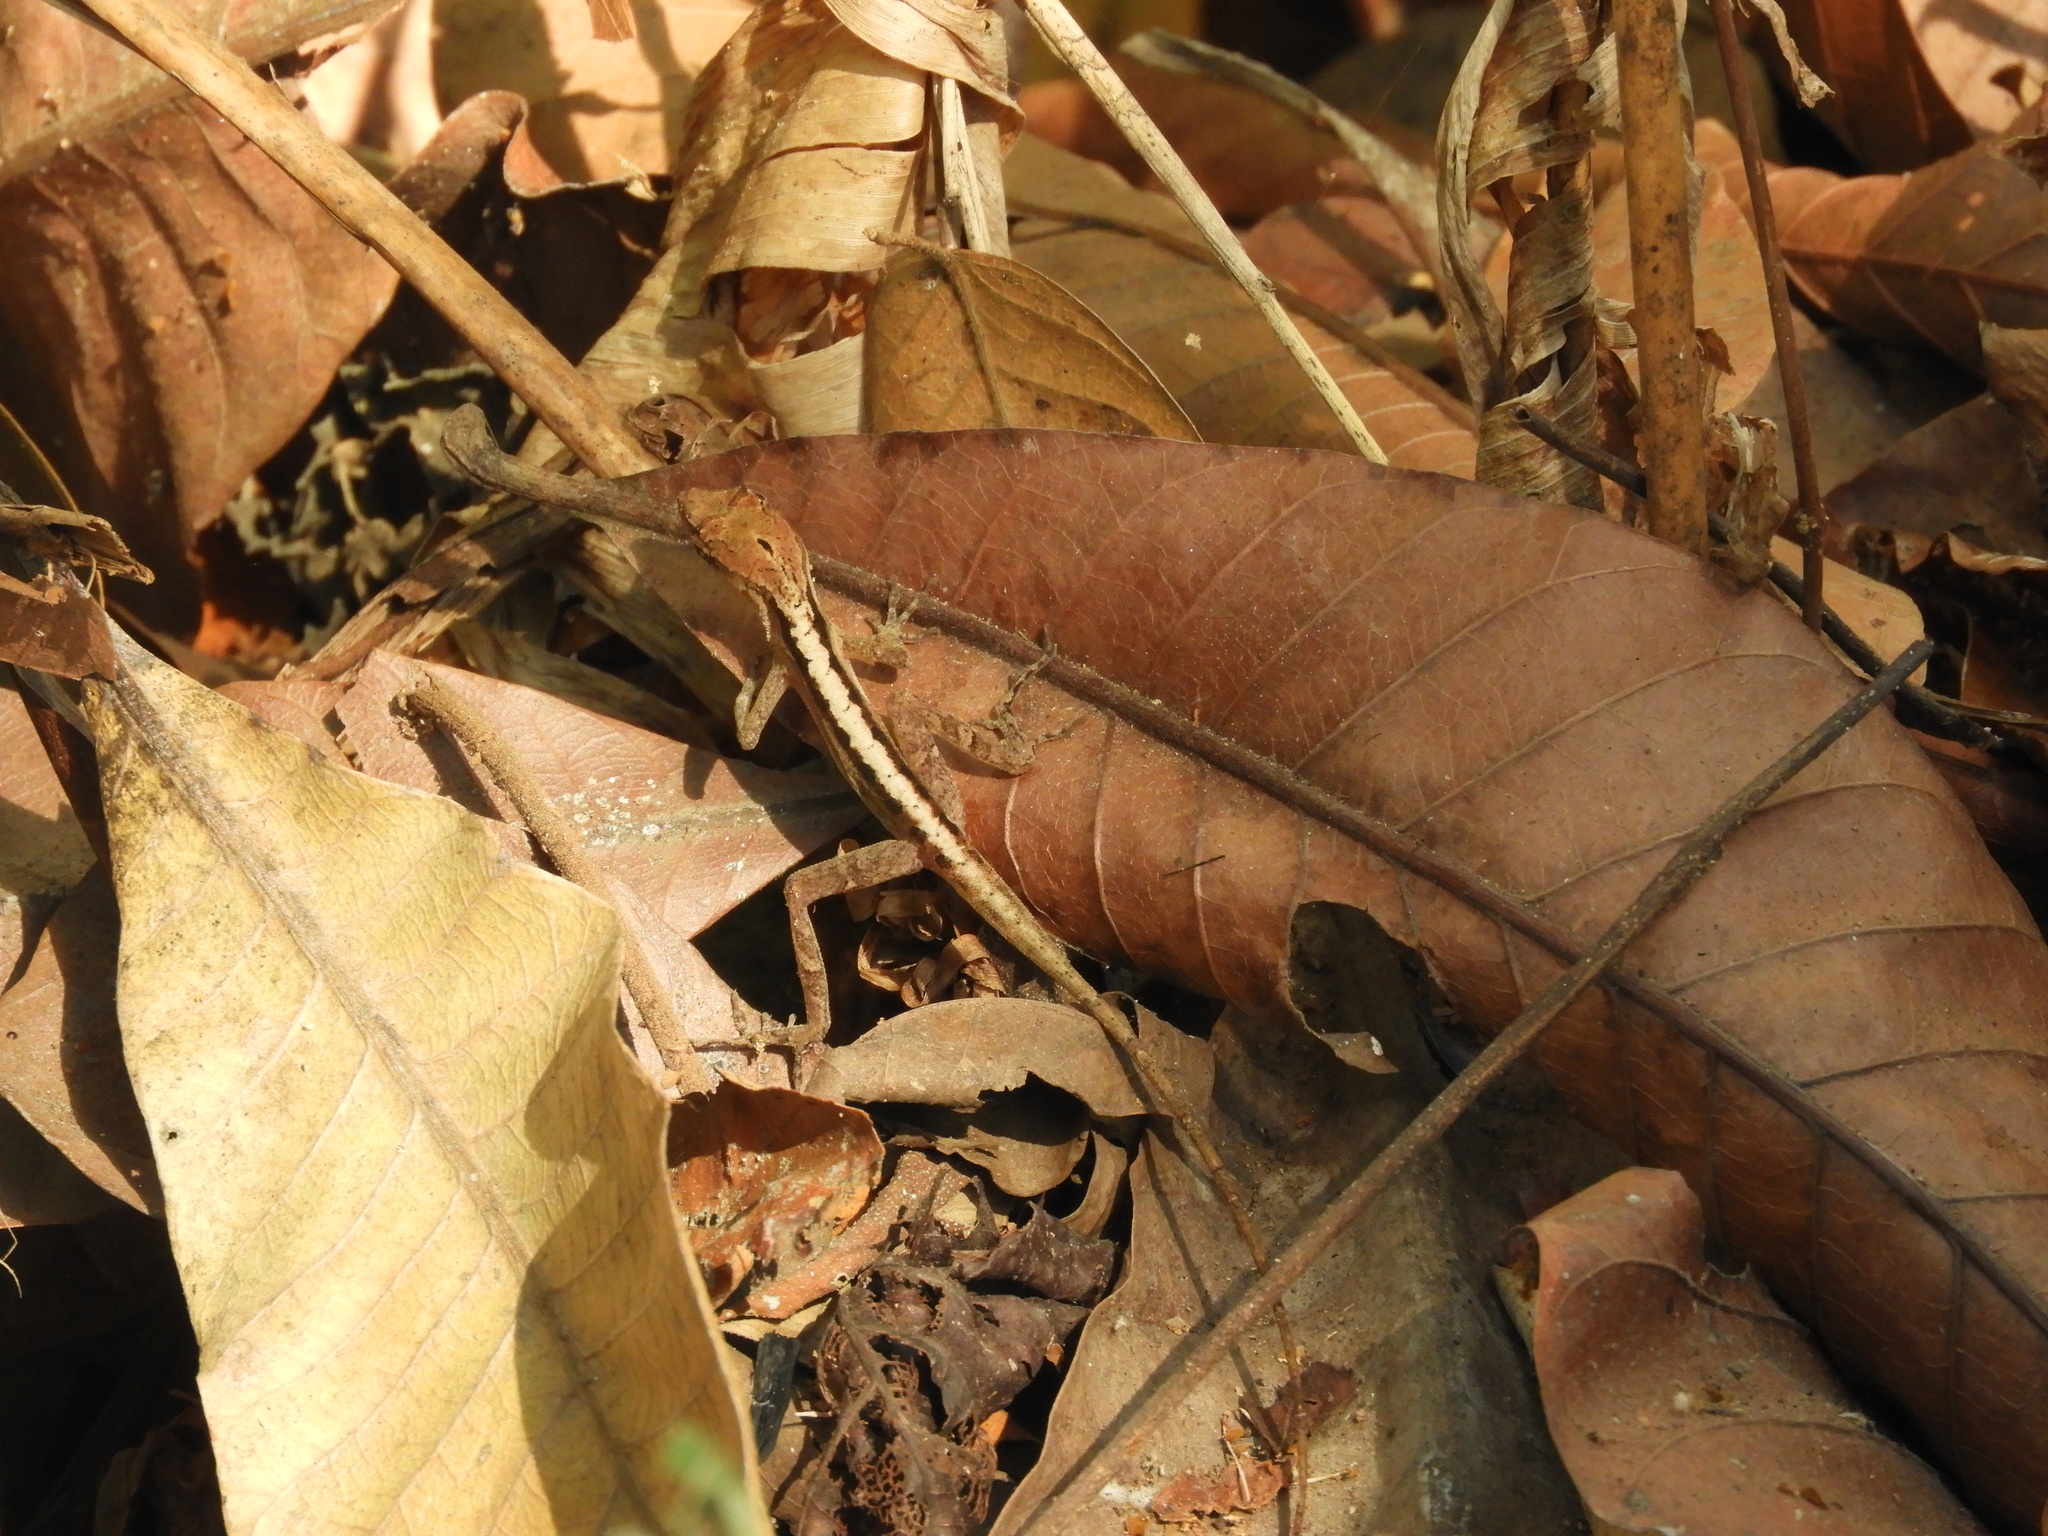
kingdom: Animalia
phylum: Chordata
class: Squamata
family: Dactyloidae
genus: Anolis
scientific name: Anolis sagrei
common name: Brown anole
